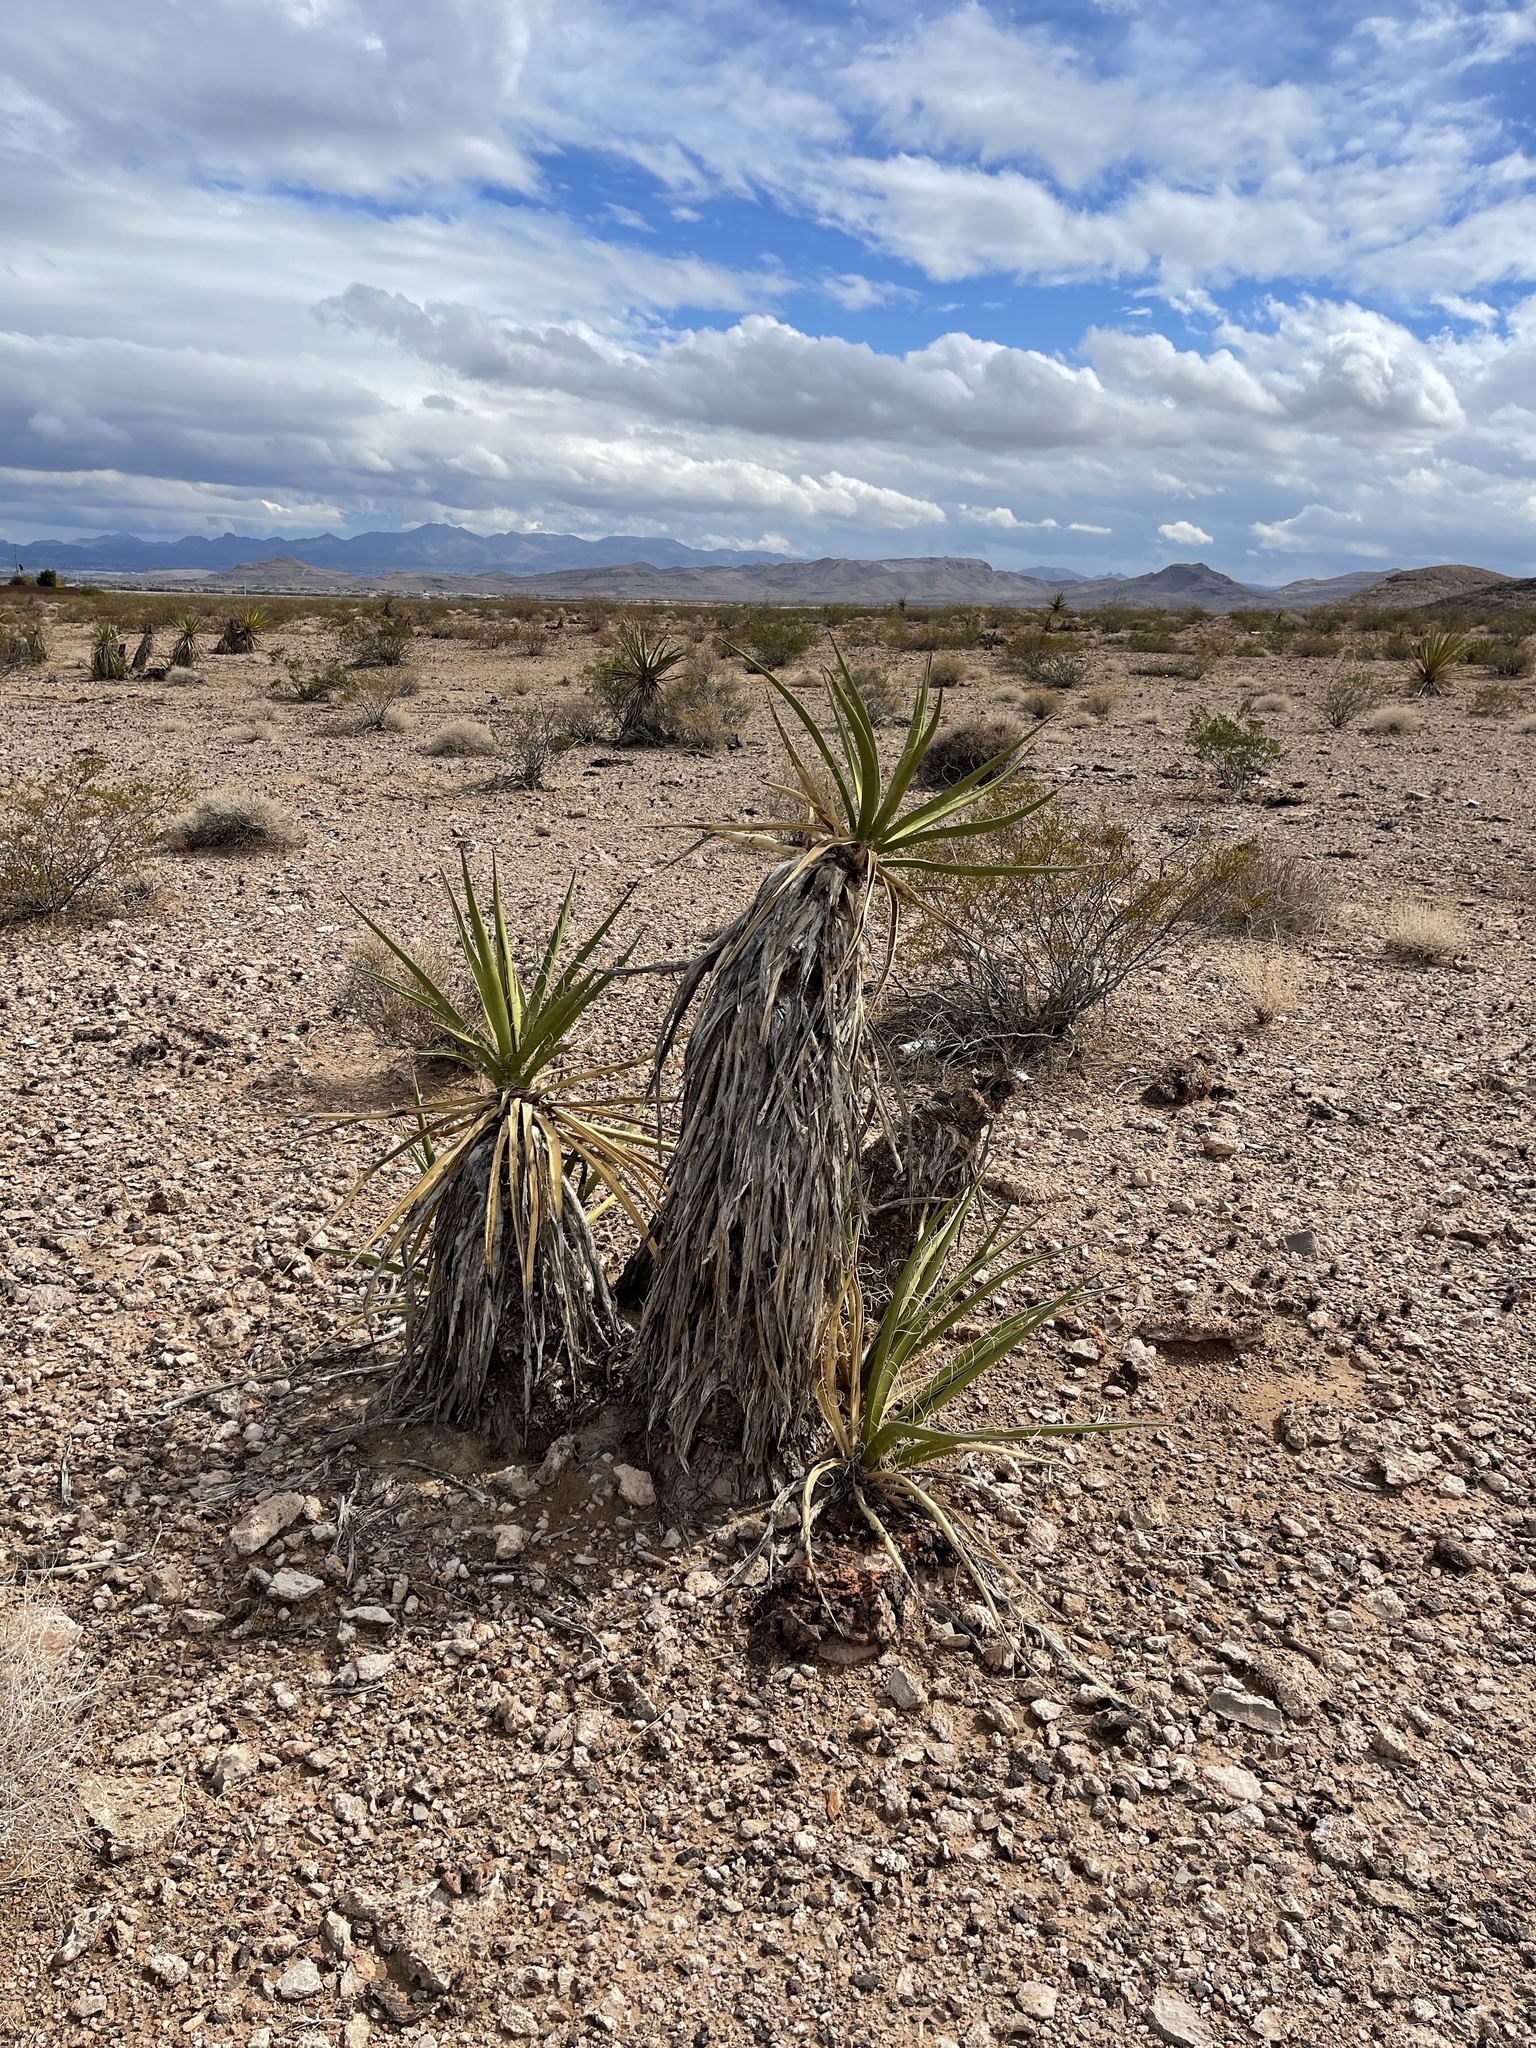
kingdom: Plantae
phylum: Tracheophyta
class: Liliopsida
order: Asparagales
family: Asparagaceae
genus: Yucca
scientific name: Yucca schidigera
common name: Mojave yucca
